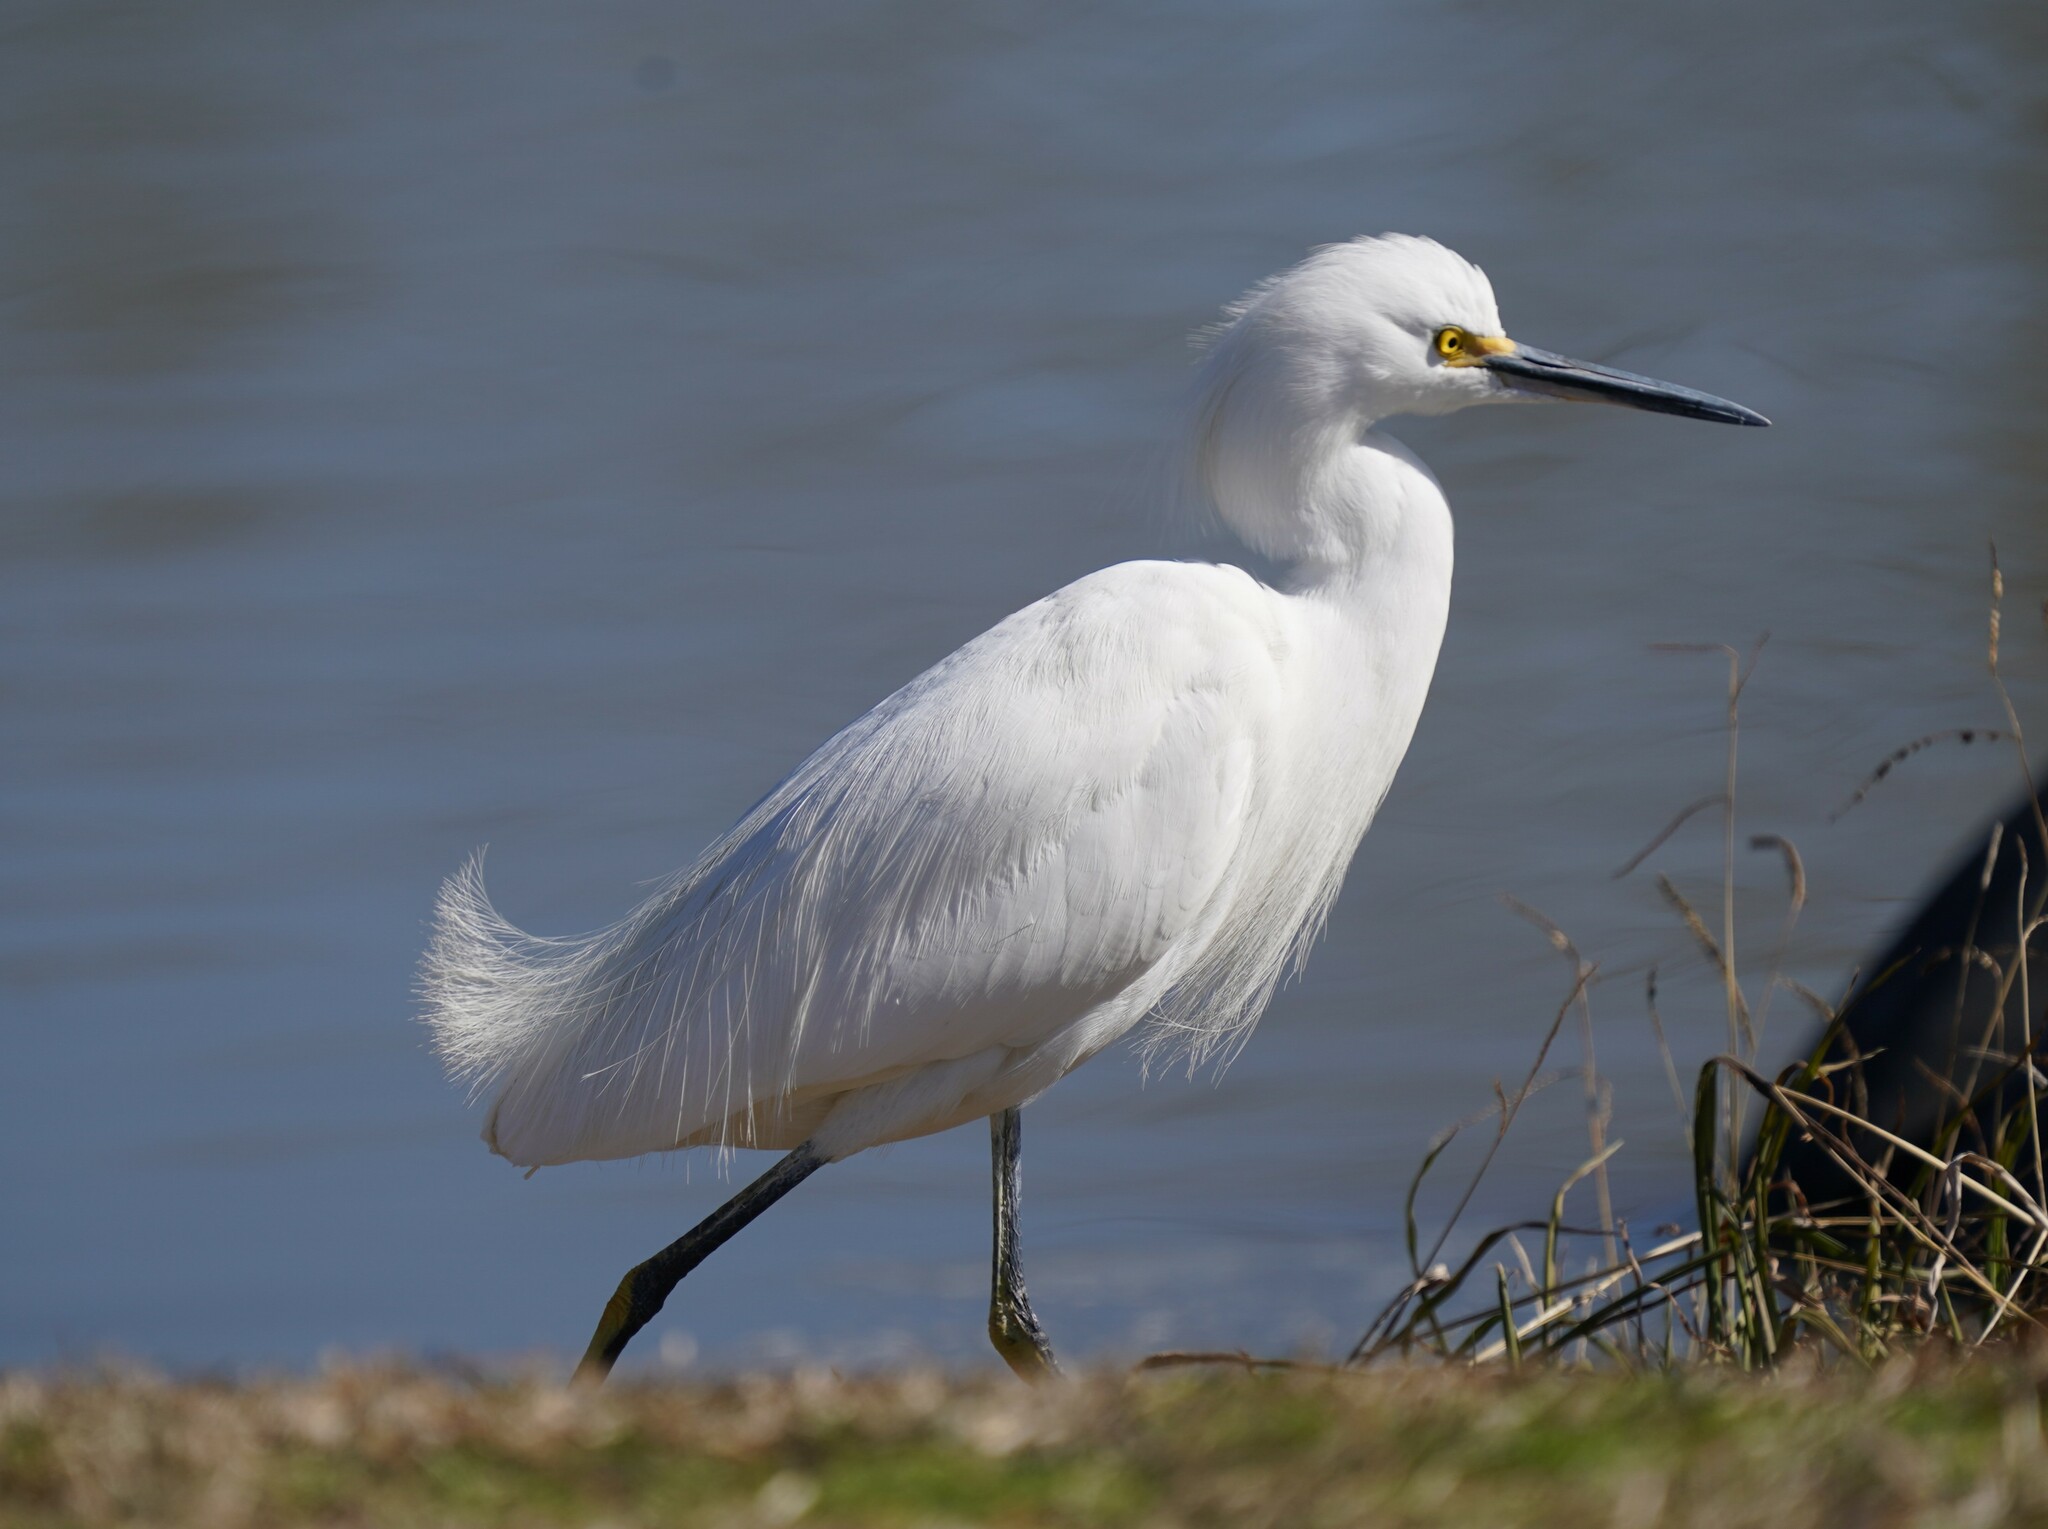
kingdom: Animalia
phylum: Chordata
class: Aves
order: Pelecaniformes
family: Ardeidae
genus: Egretta
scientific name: Egretta thula
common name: Snowy egret
